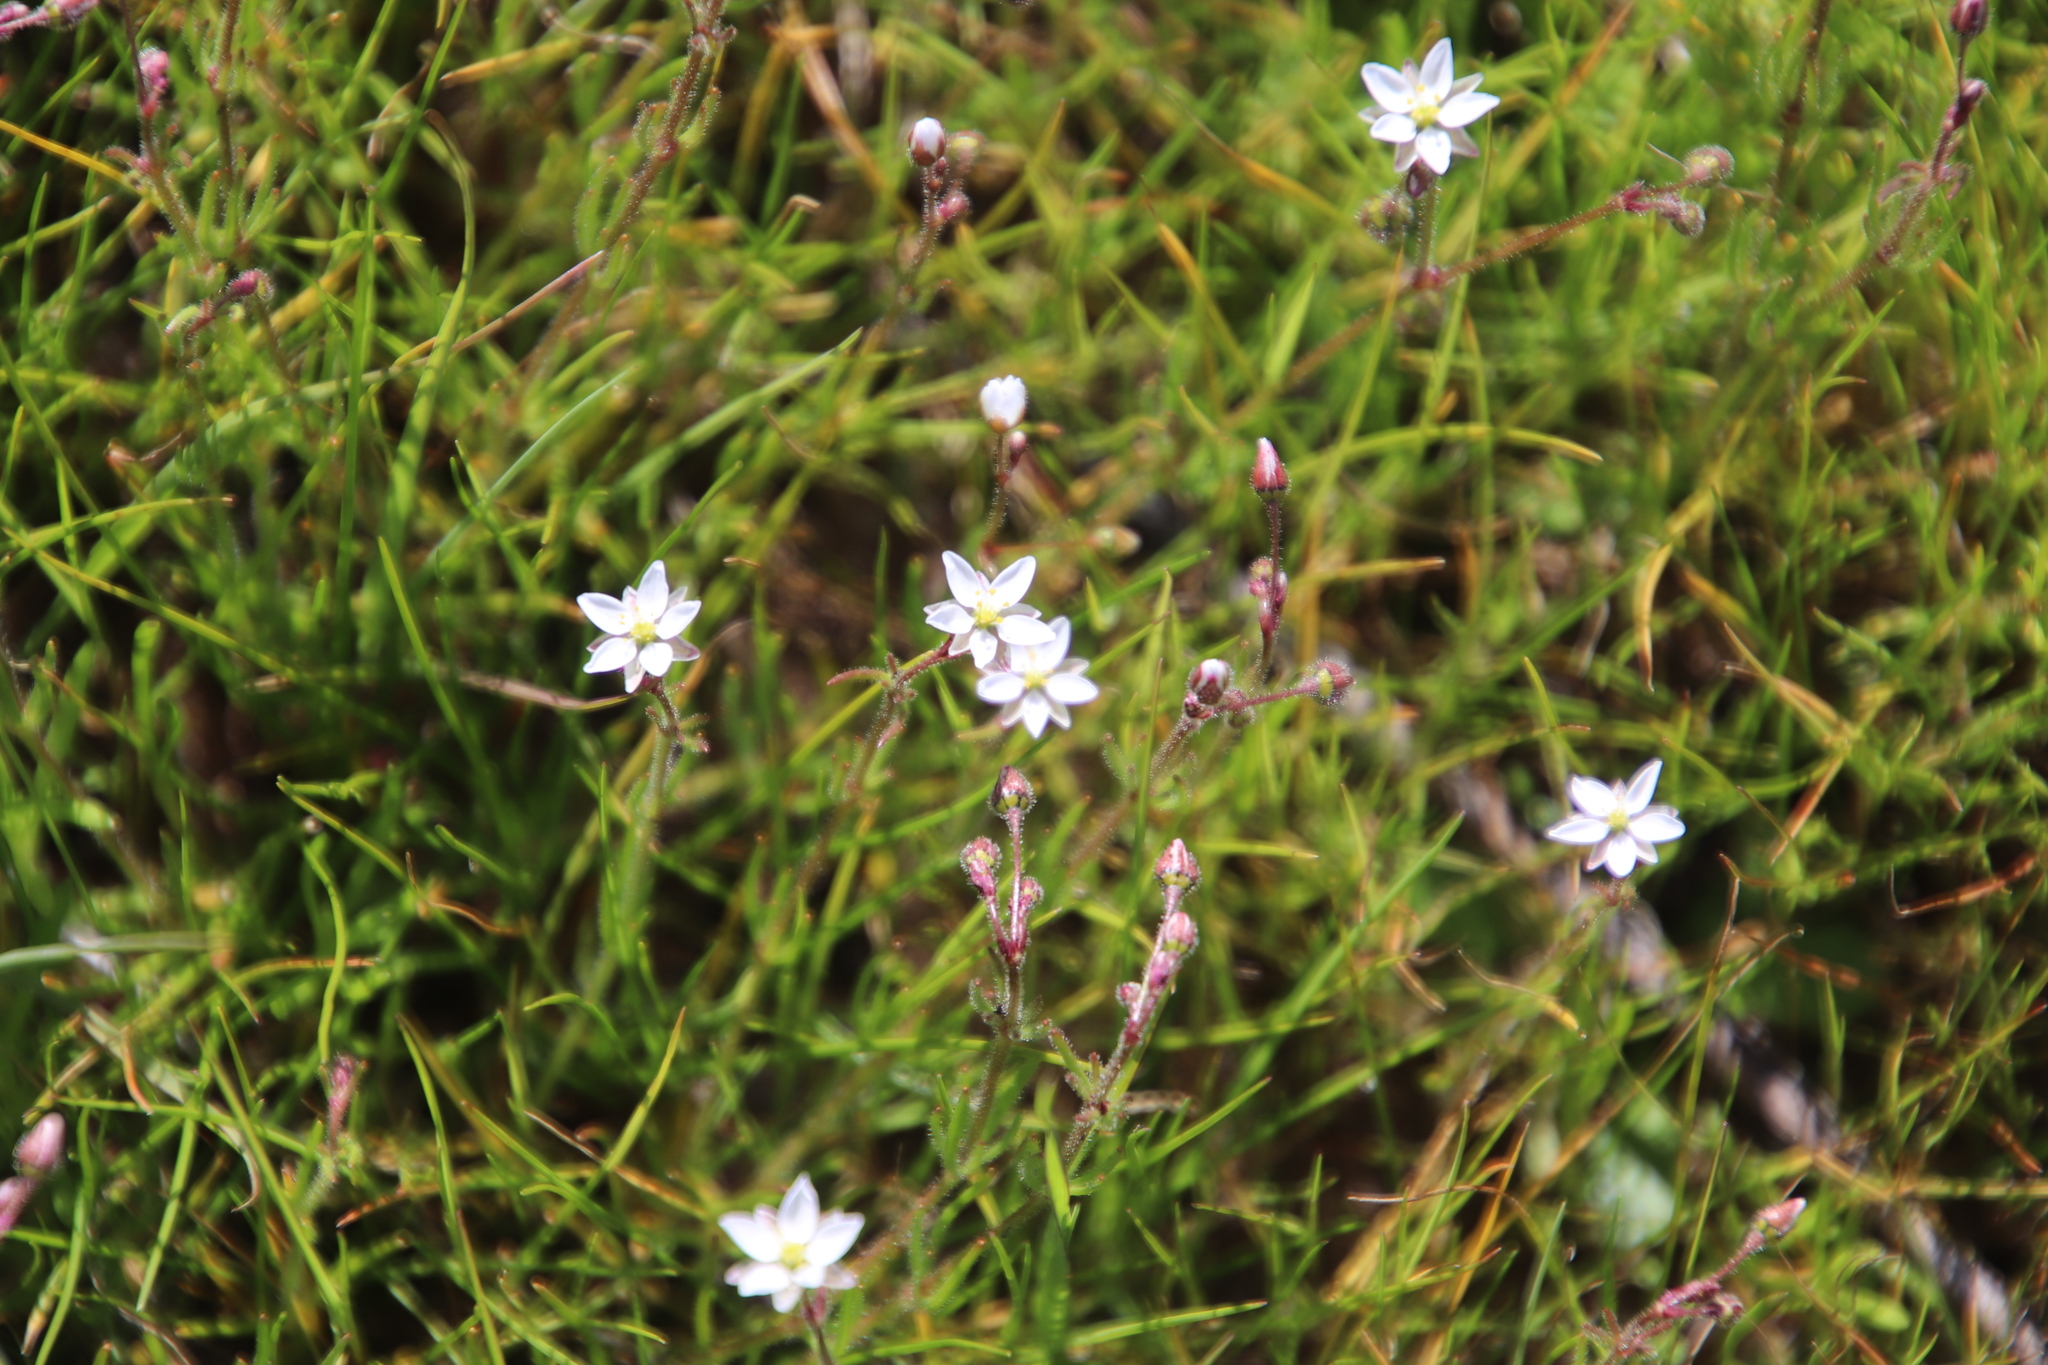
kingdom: Plantae
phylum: Tracheophyta
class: Magnoliopsida
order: Caryophyllales
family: Caryophyllaceae
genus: Spergula
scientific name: Spergula arvensis
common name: Corn spurrey
